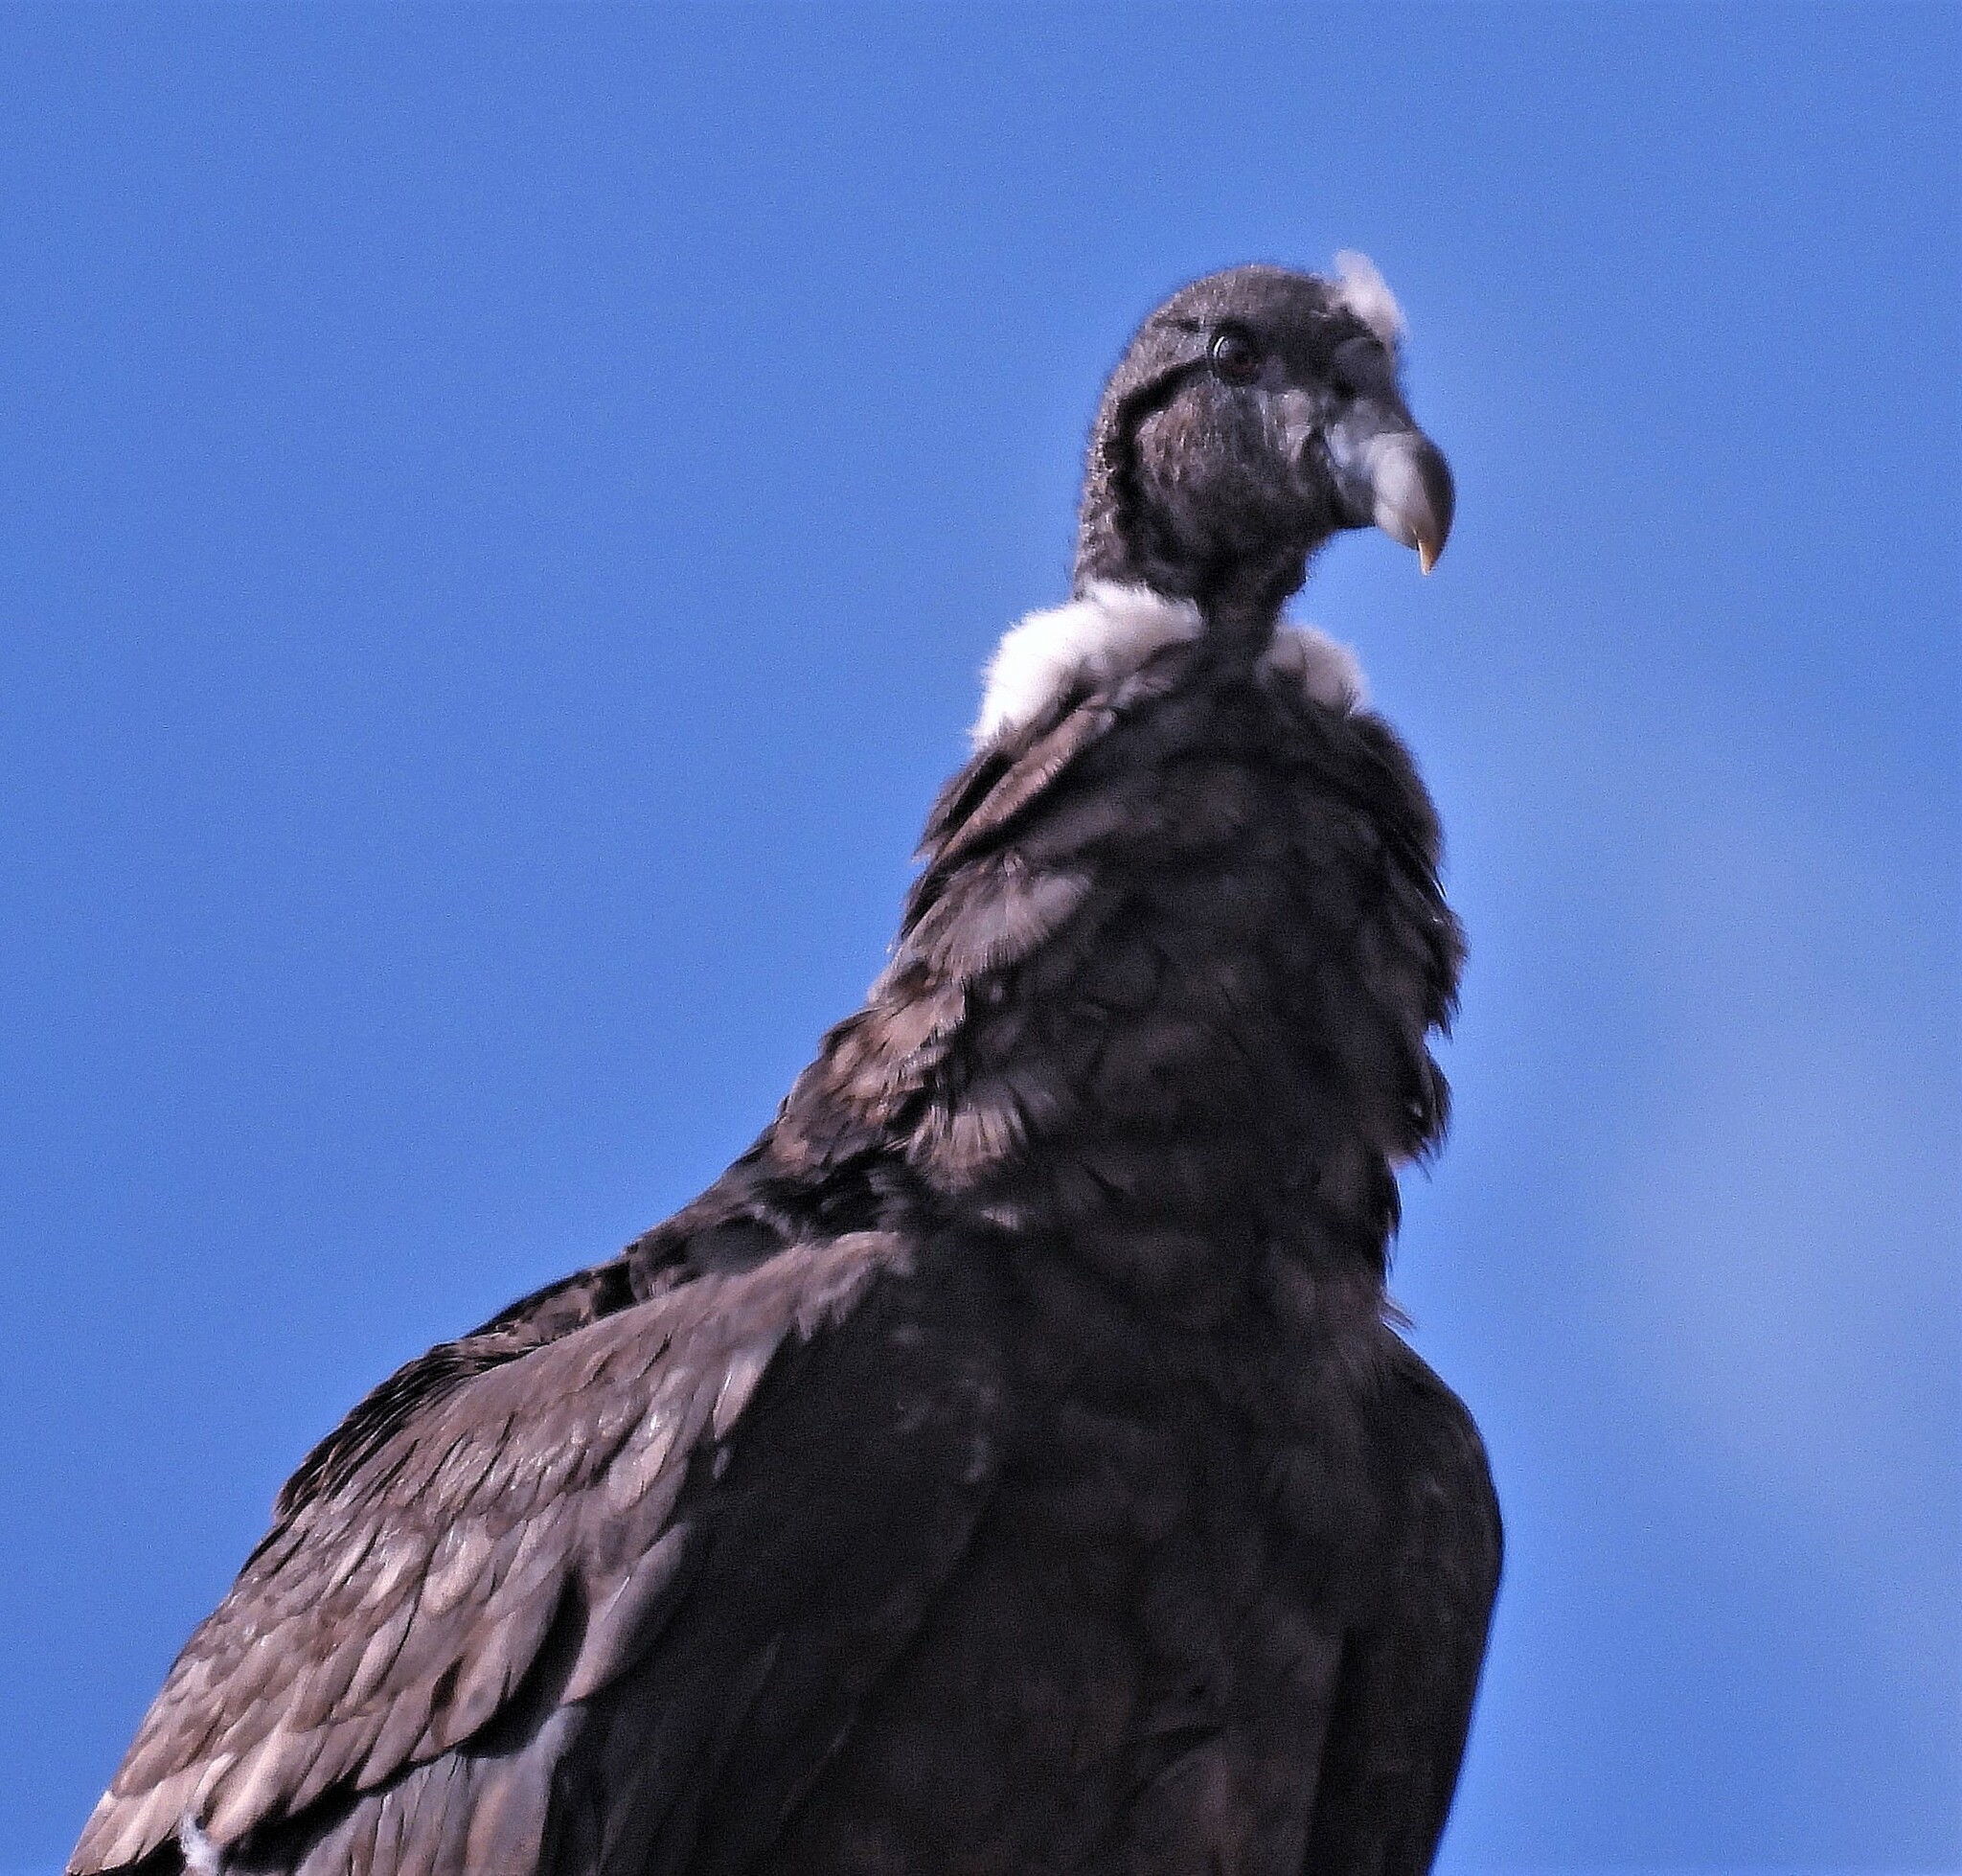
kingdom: Animalia
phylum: Chordata
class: Aves
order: Accipitriformes
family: Cathartidae
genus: Vultur
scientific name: Vultur gryphus
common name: Andean condor
